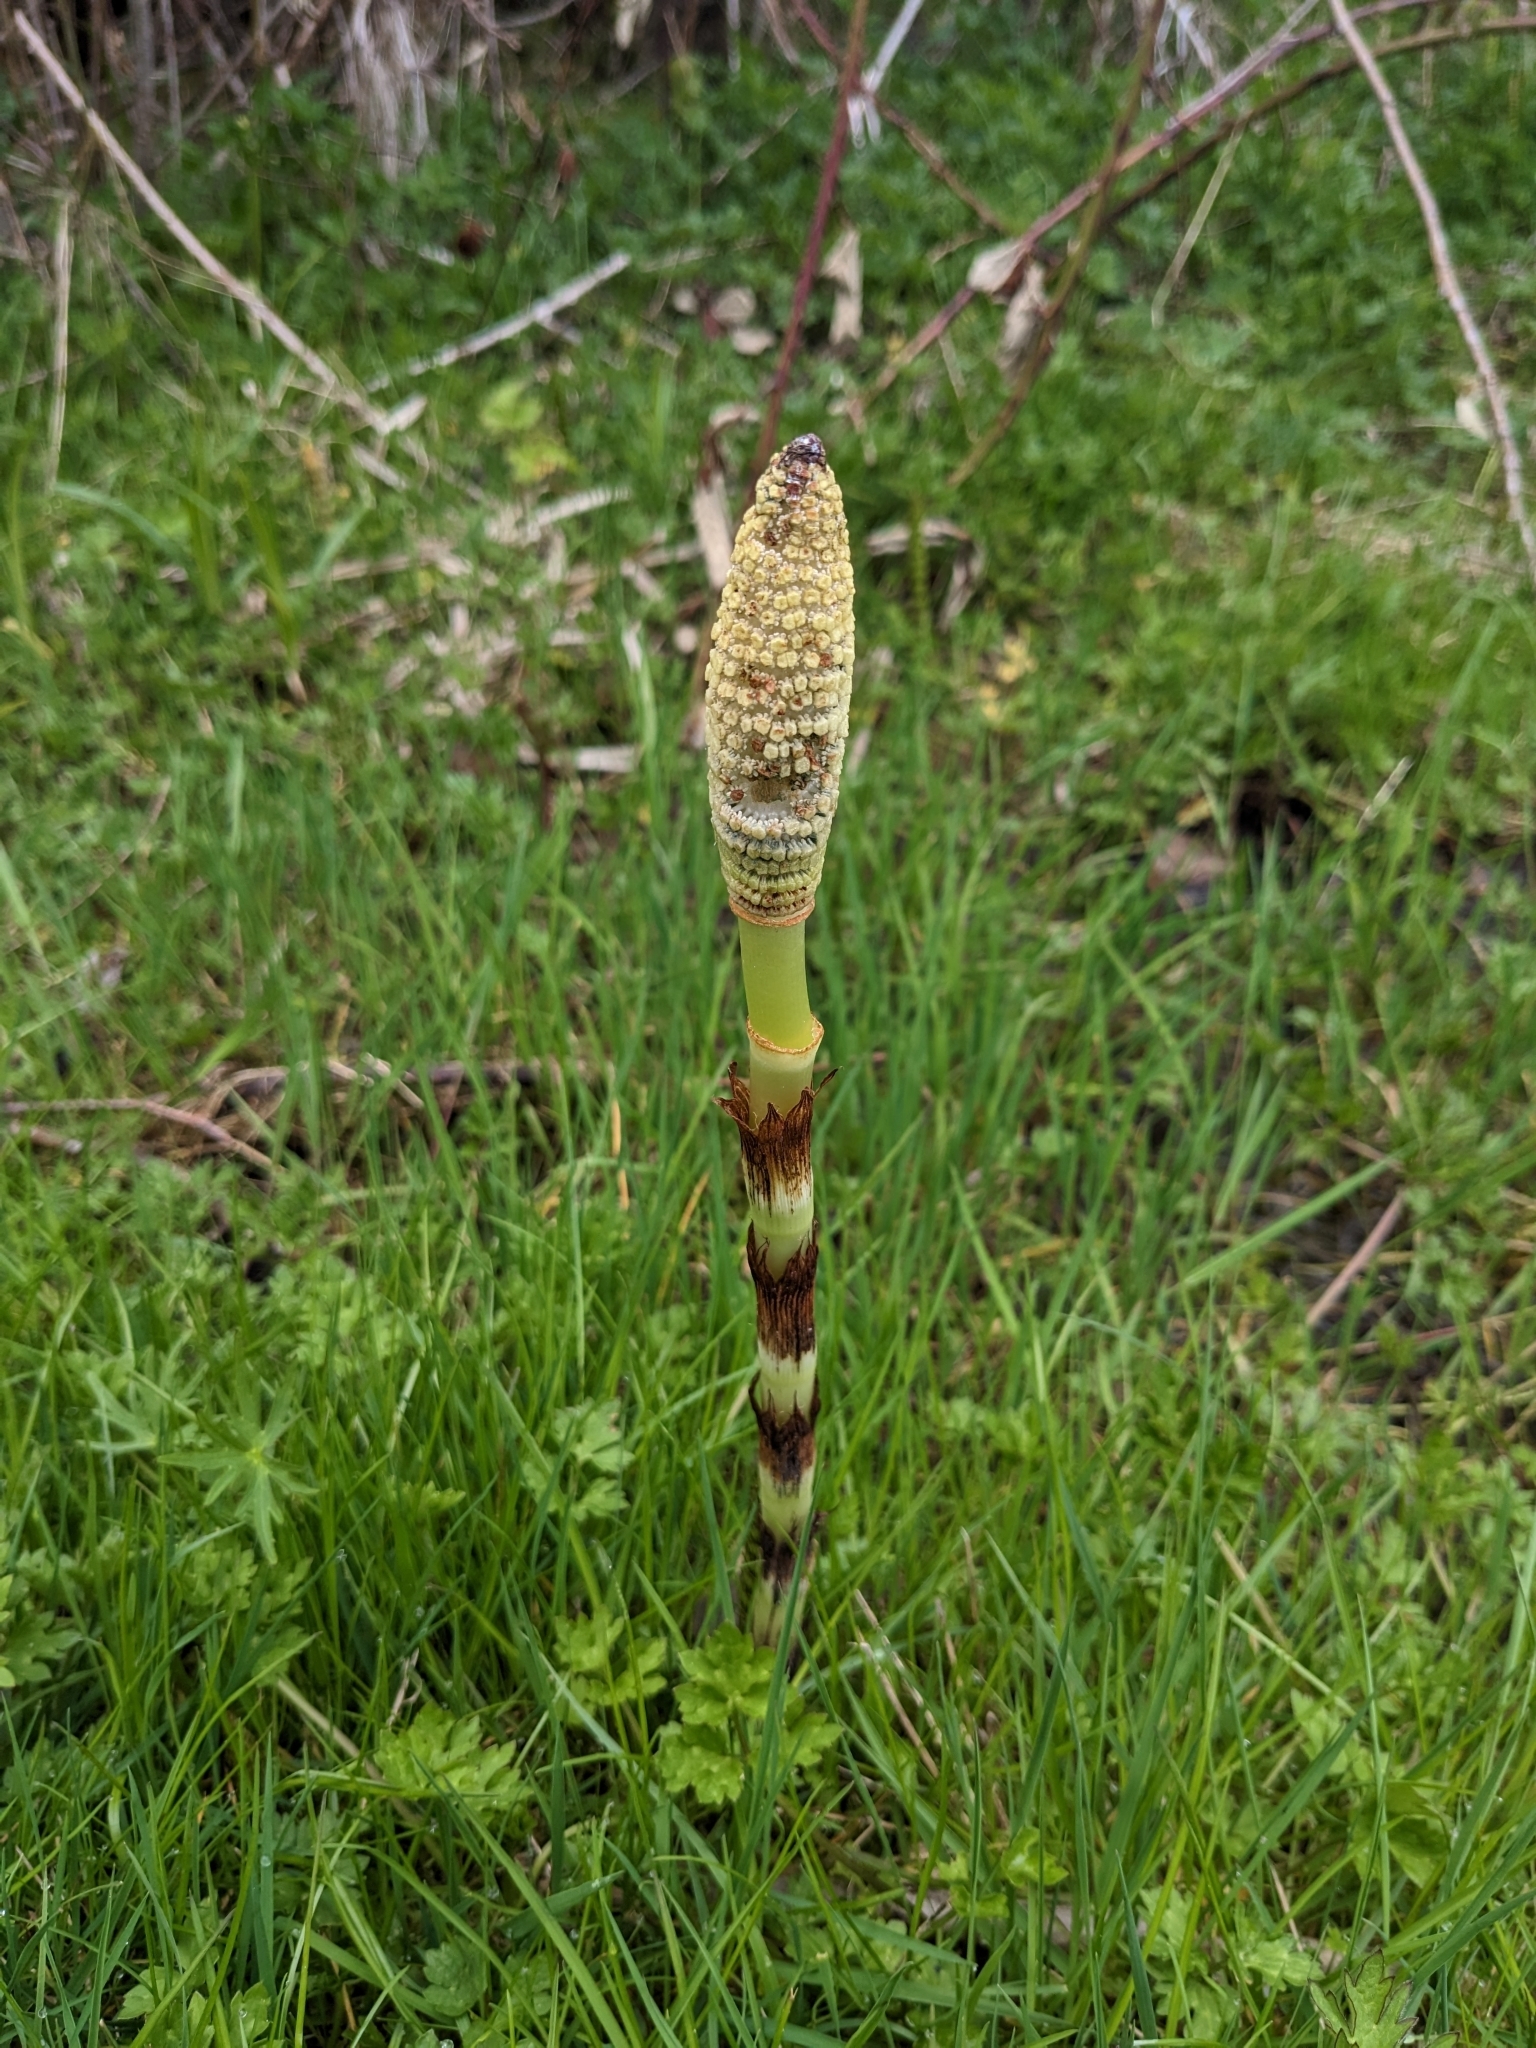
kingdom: Plantae
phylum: Tracheophyta
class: Polypodiopsida
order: Equisetales
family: Equisetaceae
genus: Equisetum
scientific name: Equisetum braunii
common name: Braun's horsetail
